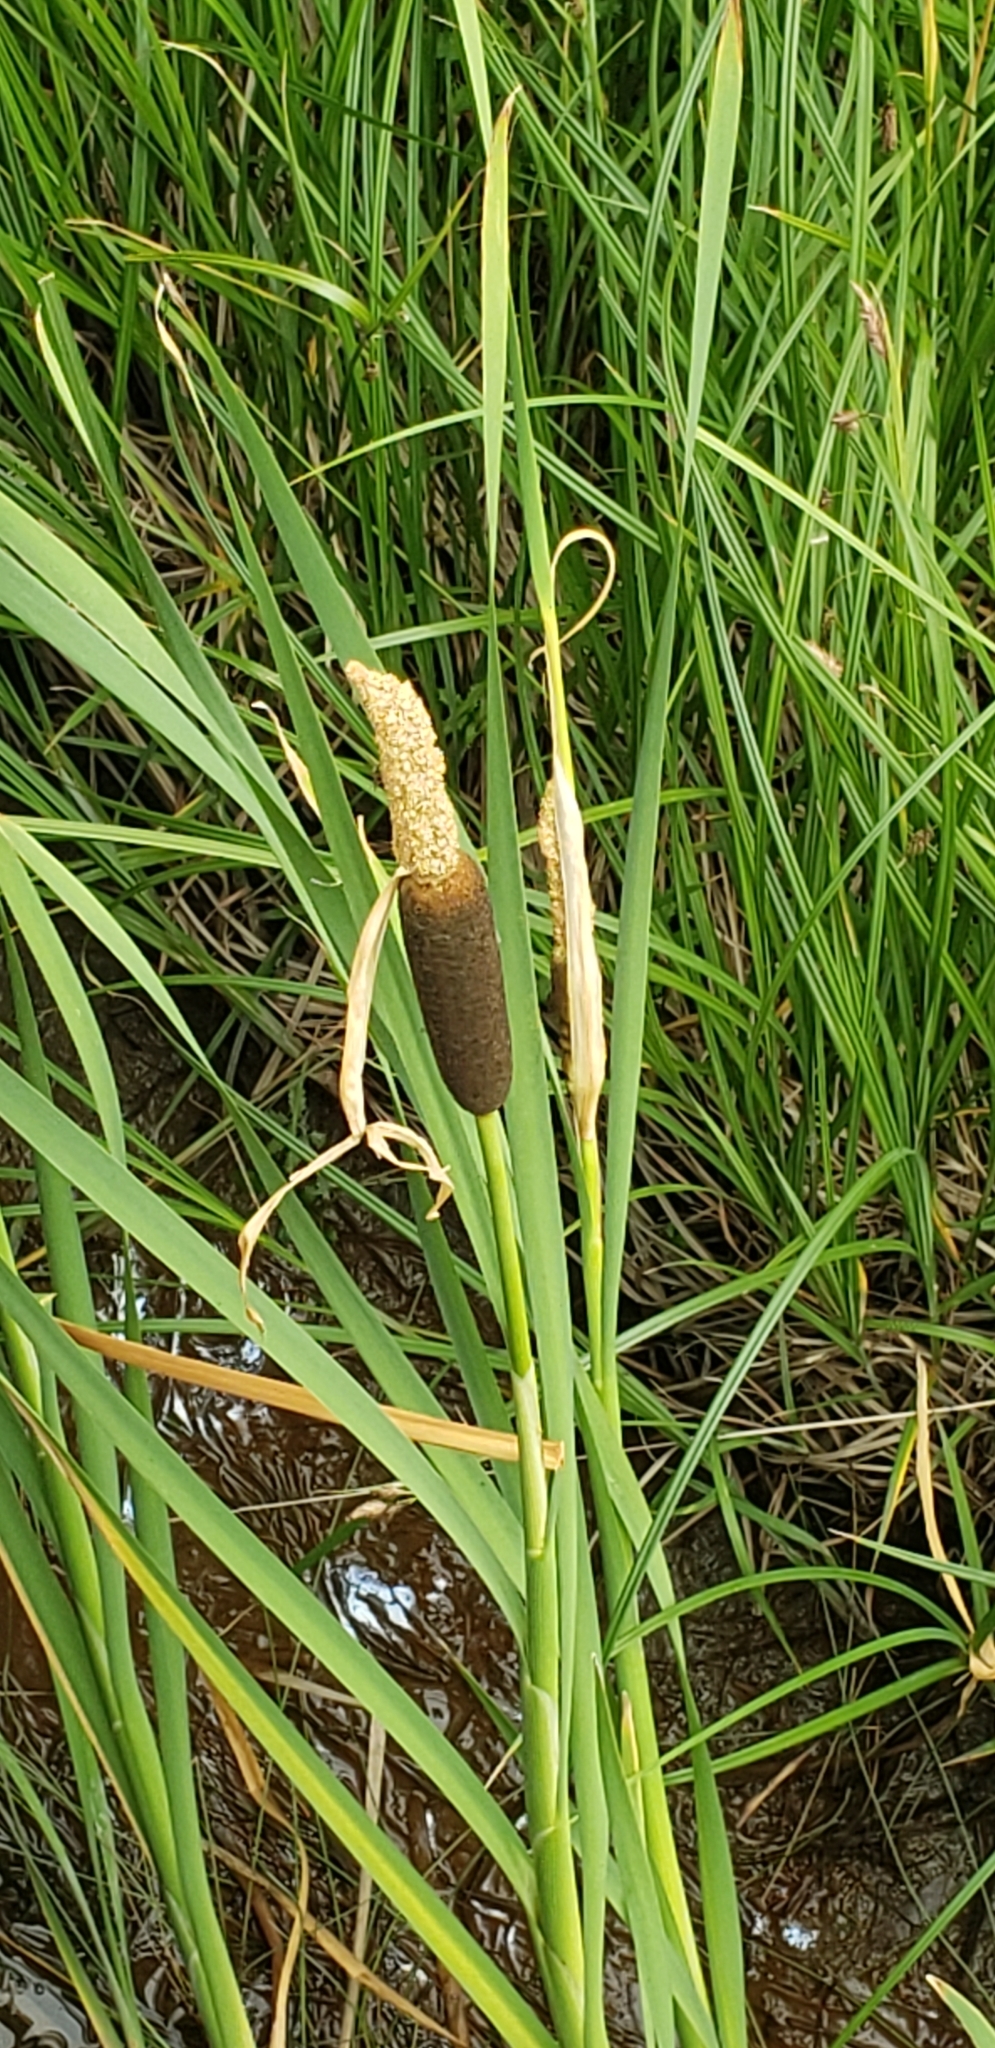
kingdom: Plantae
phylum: Tracheophyta
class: Liliopsida
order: Poales
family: Typhaceae
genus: Typha
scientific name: Typha latifolia
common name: Broadleaf cattail
